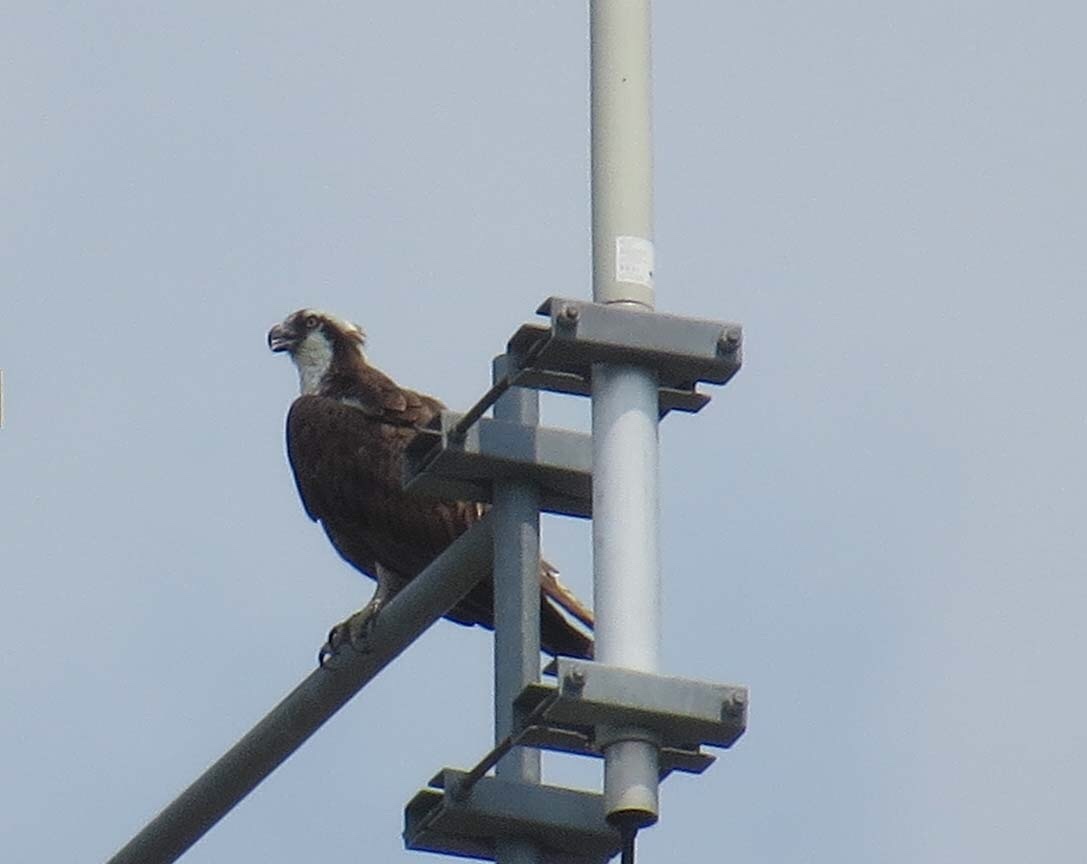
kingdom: Animalia
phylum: Chordata
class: Aves
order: Accipitriformes
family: Pandionidae
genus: Pandion
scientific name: Pandion haliaetus
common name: Osprey
